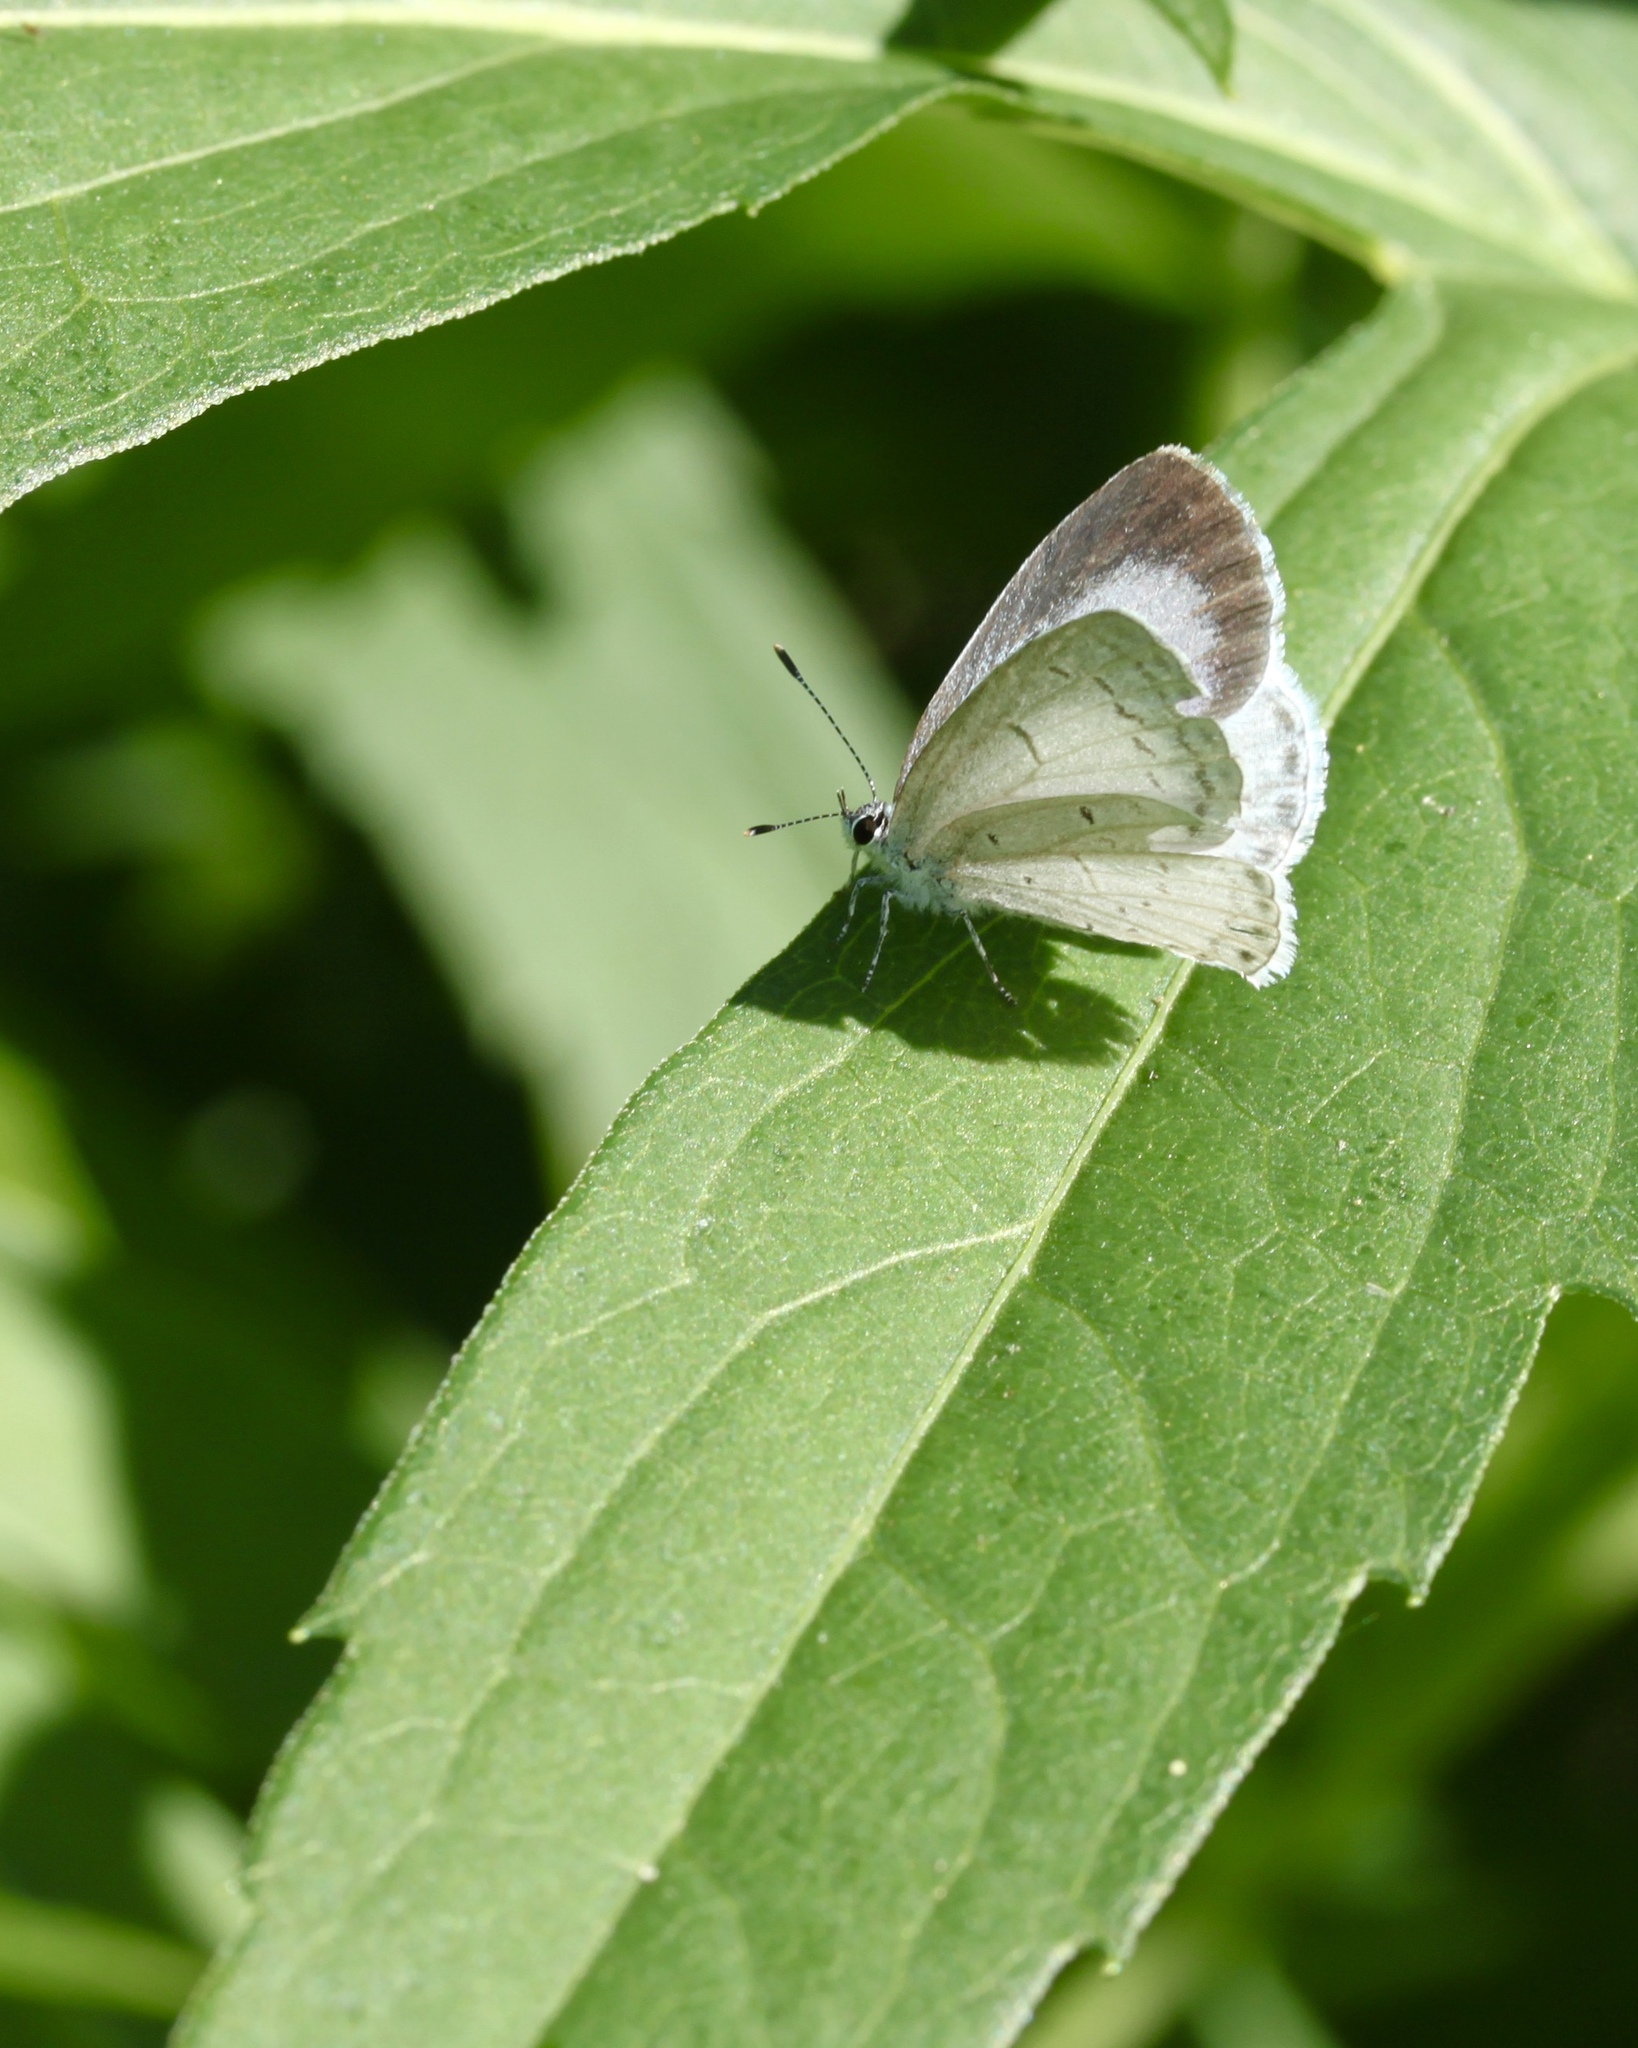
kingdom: Animalia
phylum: Arthropoda
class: Insecta
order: Lepidoptera
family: Lycaenidae
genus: Cyaniris
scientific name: Cyaniris neglecta
